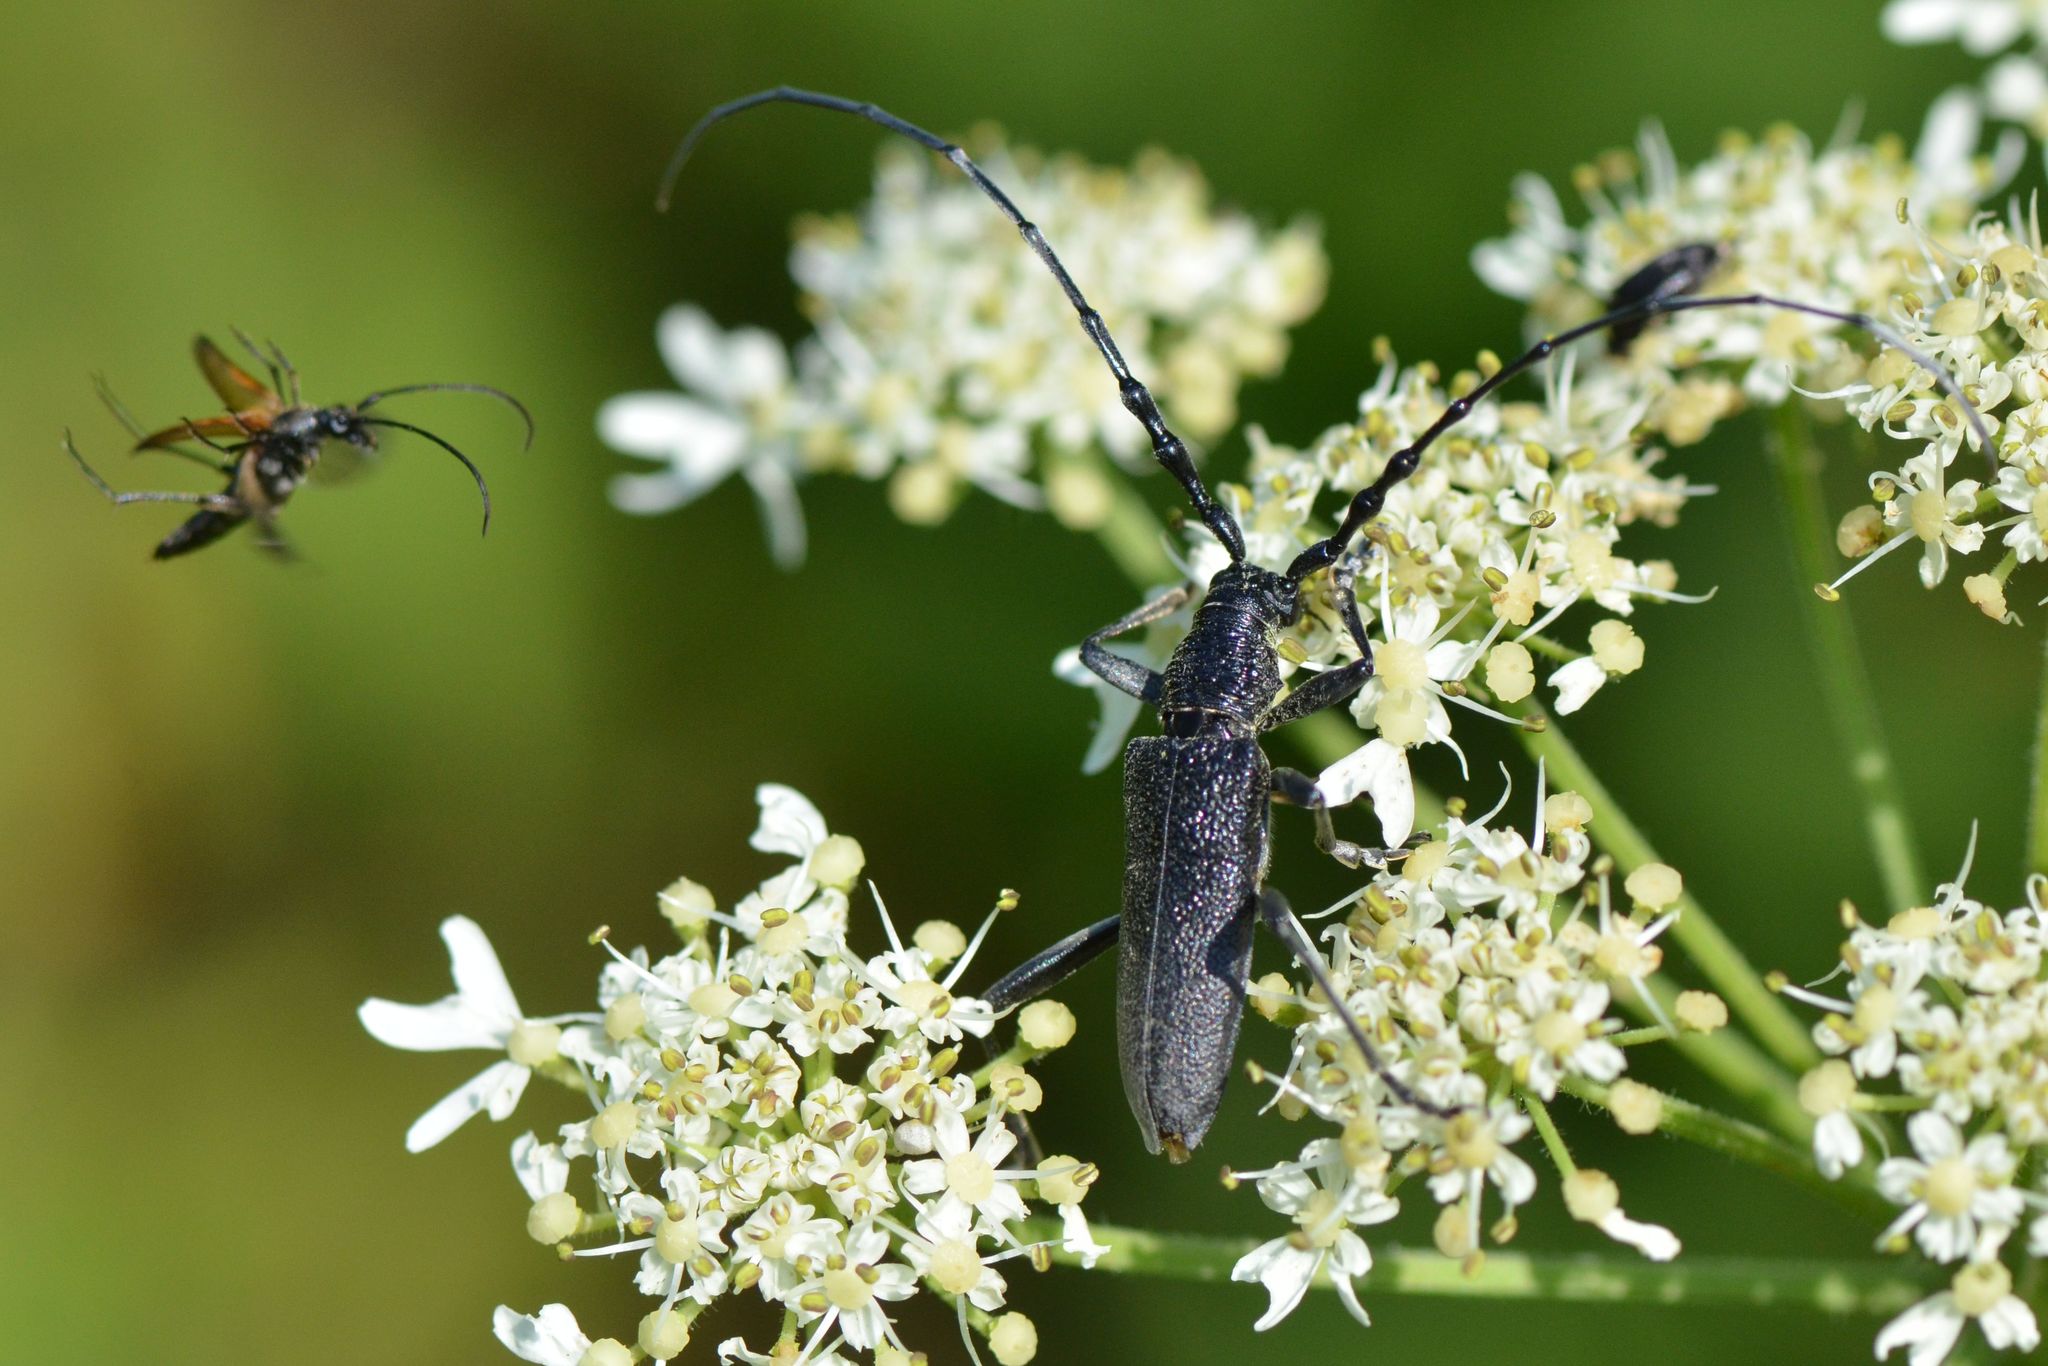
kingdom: Animalia
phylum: Arthropoda
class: Insecta
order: Coleoptera
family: Cerambycidae
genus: Cerambyx
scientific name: Cerambyx scopolii
